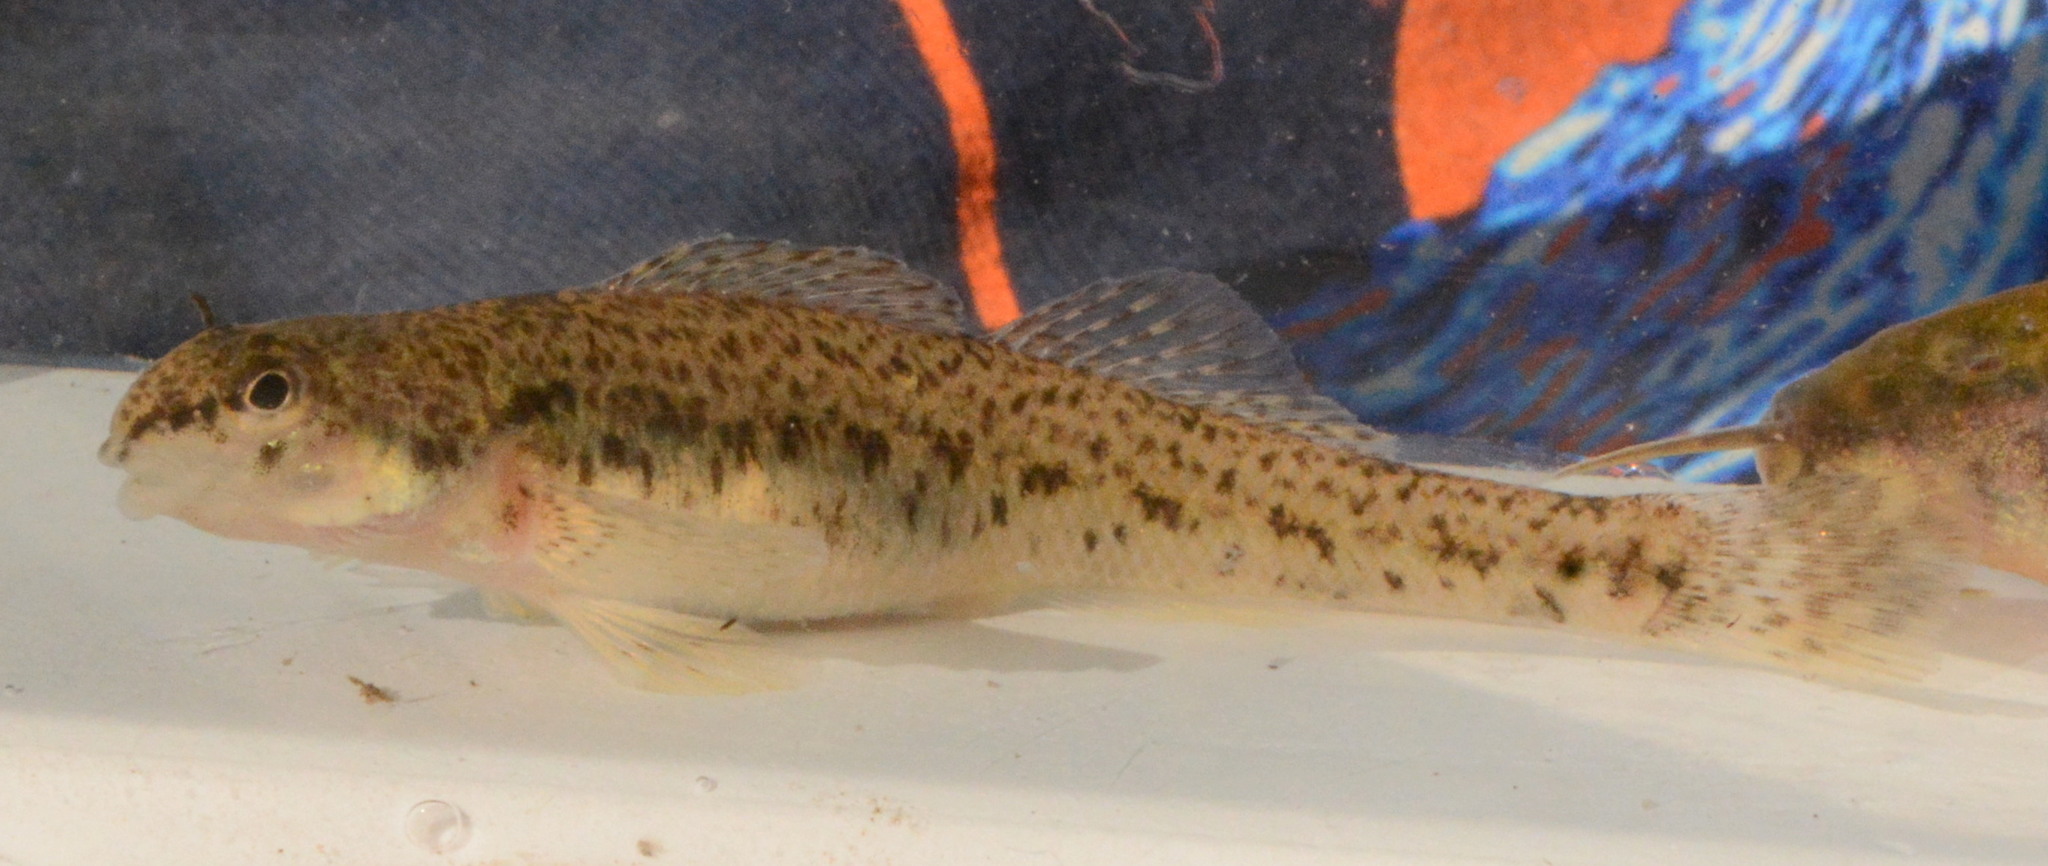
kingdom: Animalia
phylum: Chordata
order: Perciformes
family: Percidae
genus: Etheostoma
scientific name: Etheostoma nigrum
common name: Johnny darter
